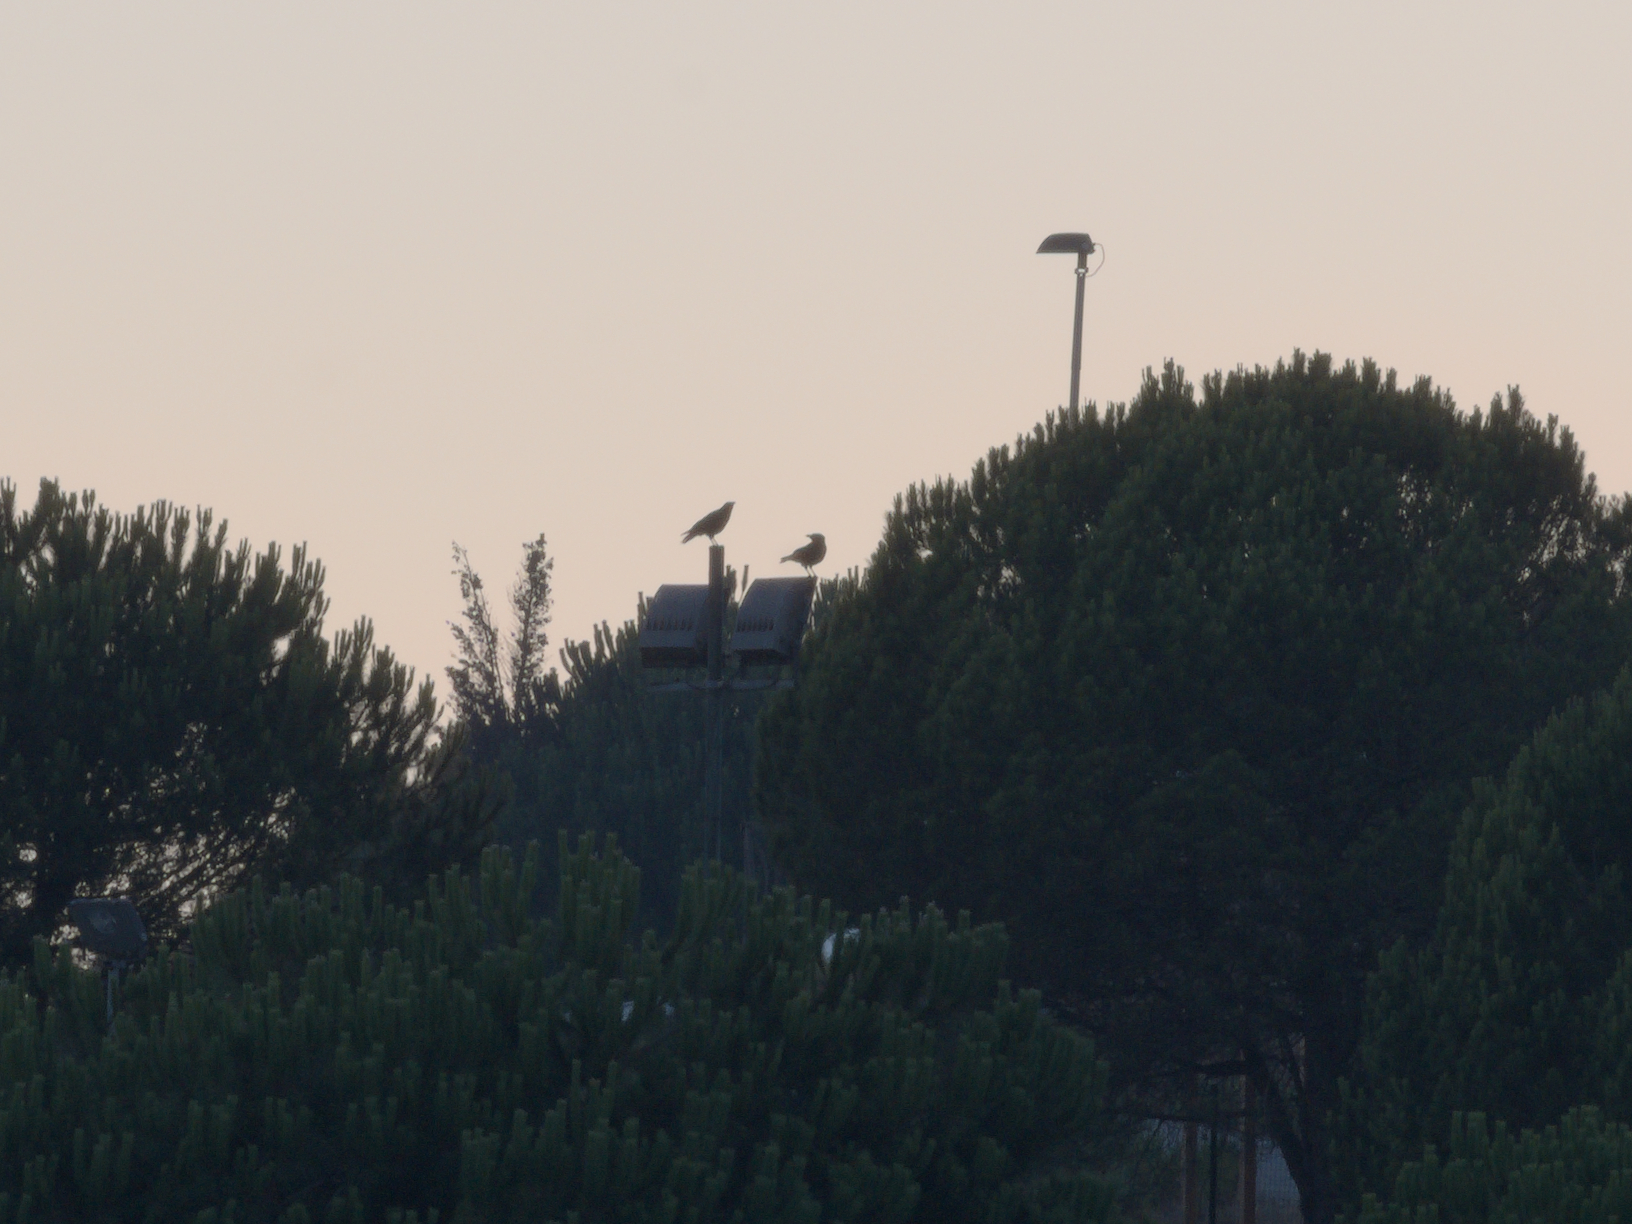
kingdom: Animalia
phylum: Chordata
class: Aves
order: Passeriformes
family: Corvidae
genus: Corvus
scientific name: Corvus corone
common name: Carrion crow
